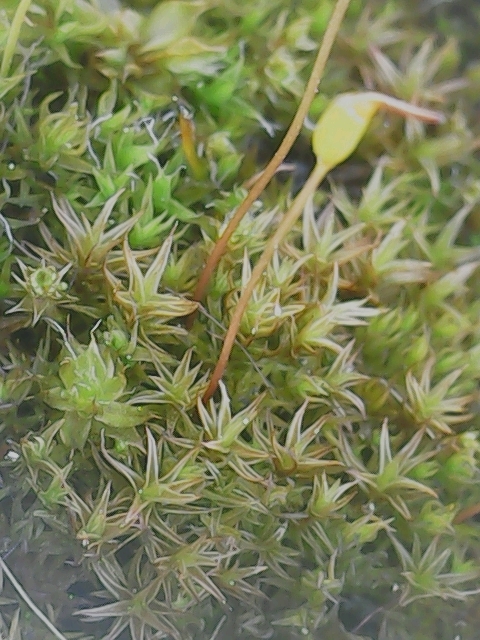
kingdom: Plantae
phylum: Bryophyta
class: Bryopsida
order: Dicranales
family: Ditrichaceae
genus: Ceratodon
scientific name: Ceratodon purpureus
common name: Redshank
